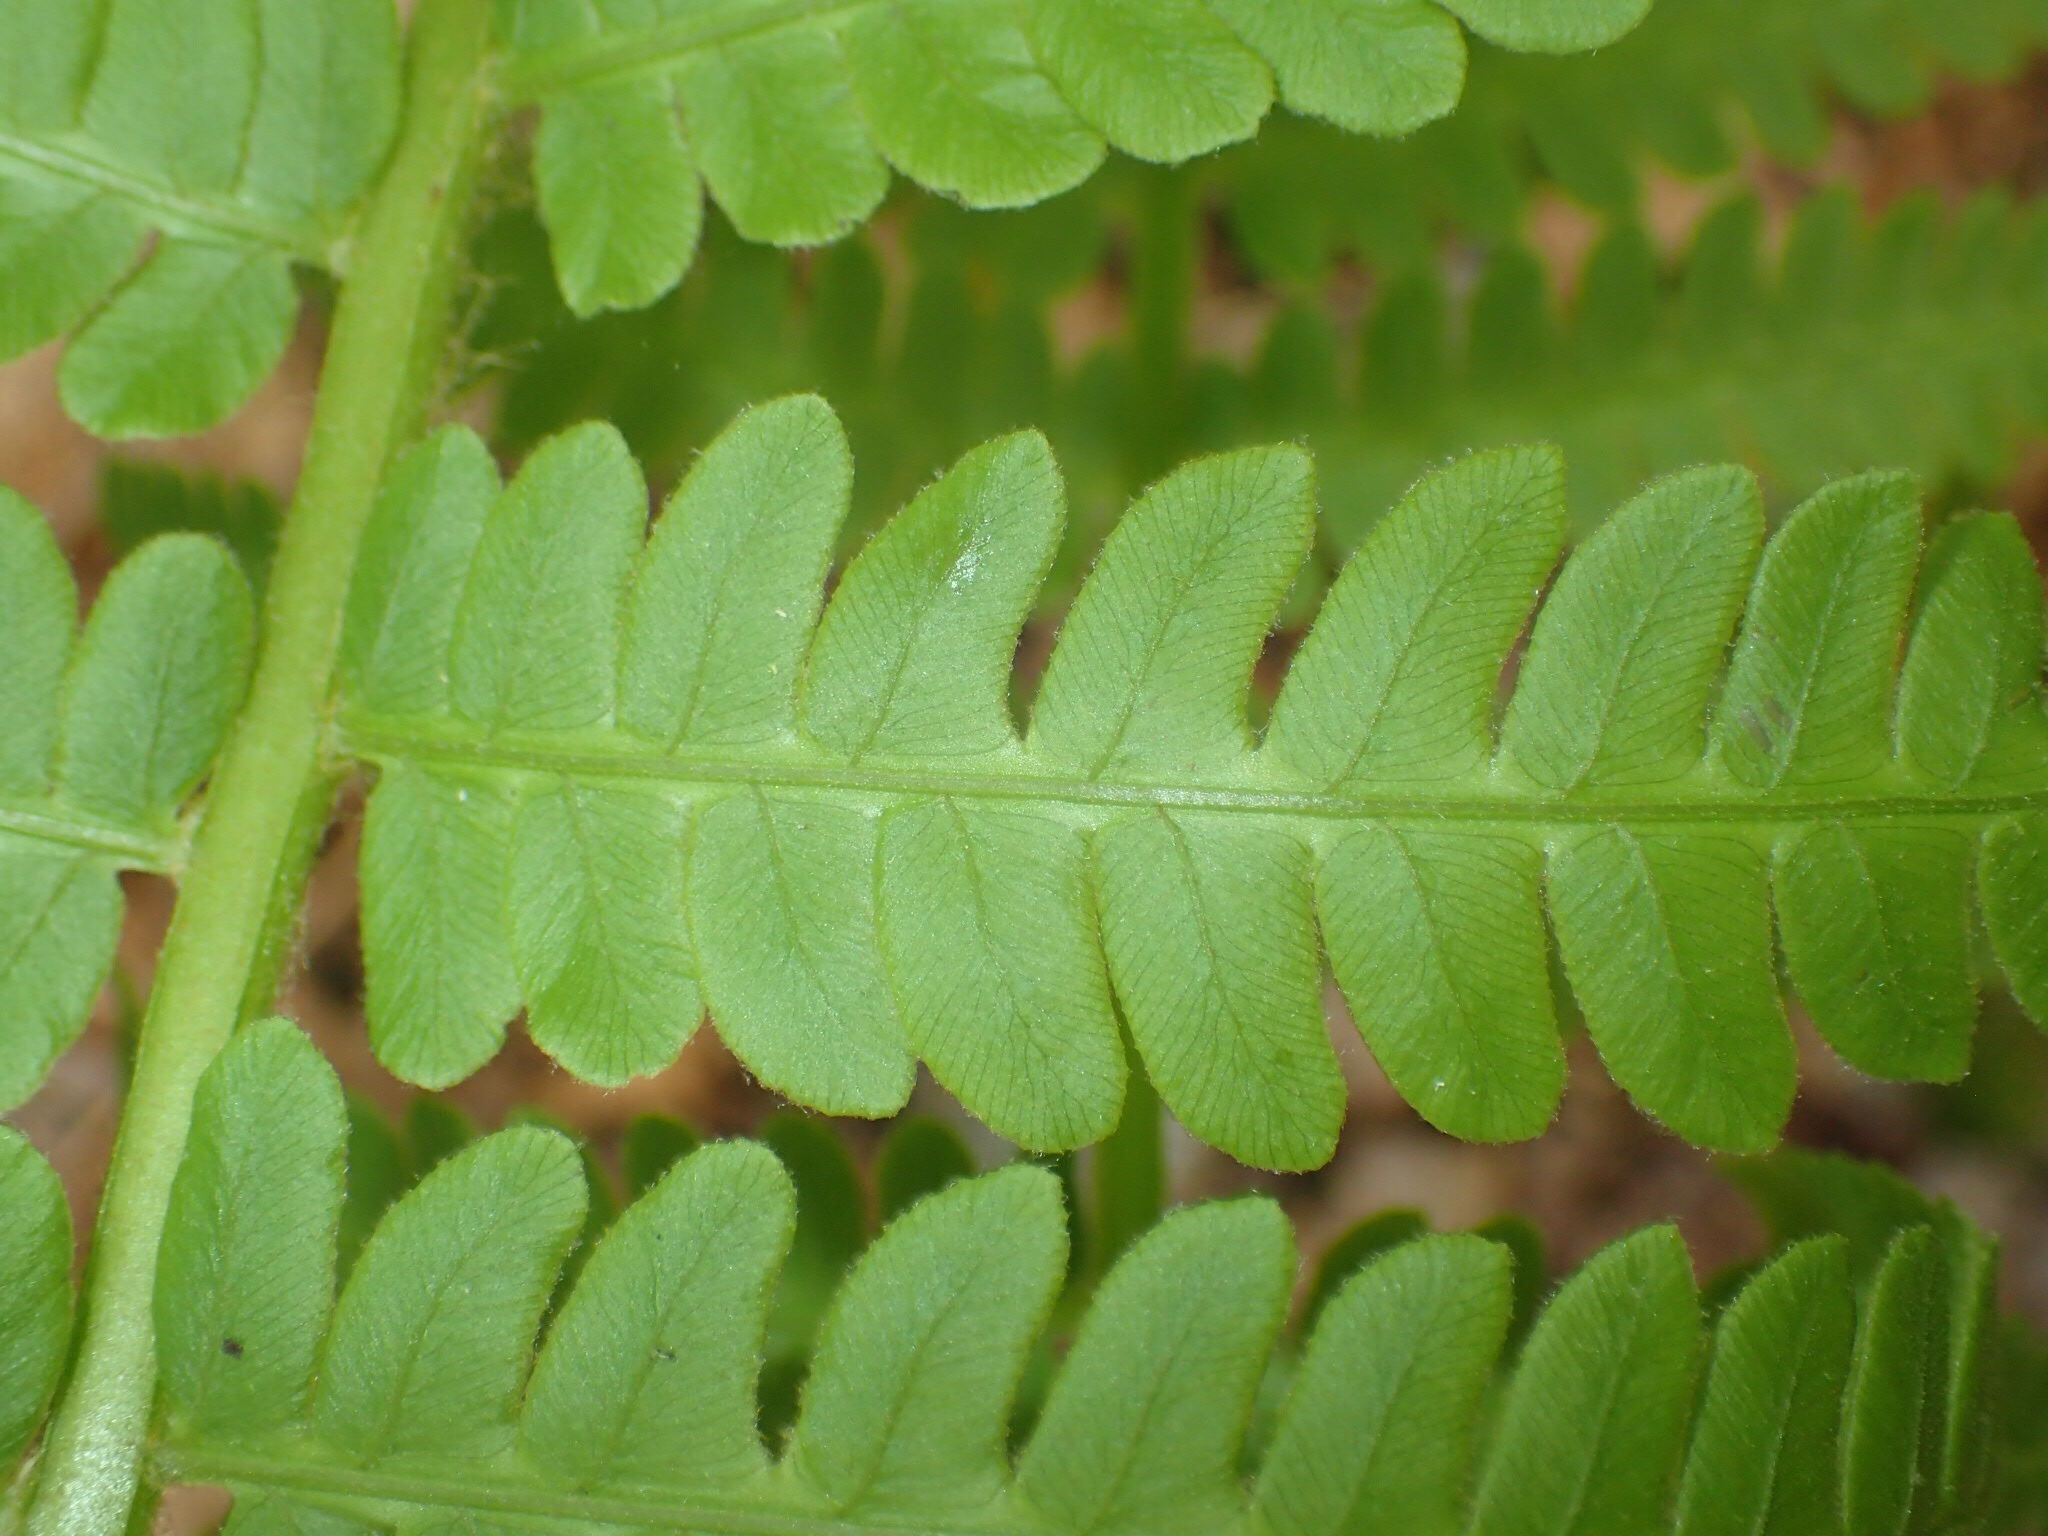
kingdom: Plantae
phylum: Tracheophyta
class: Polypodiopsida
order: Osmundales
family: Osmundaceae
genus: Osmundastrum
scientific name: Osmundastrum cinnamomeum
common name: Cinnamon fern
